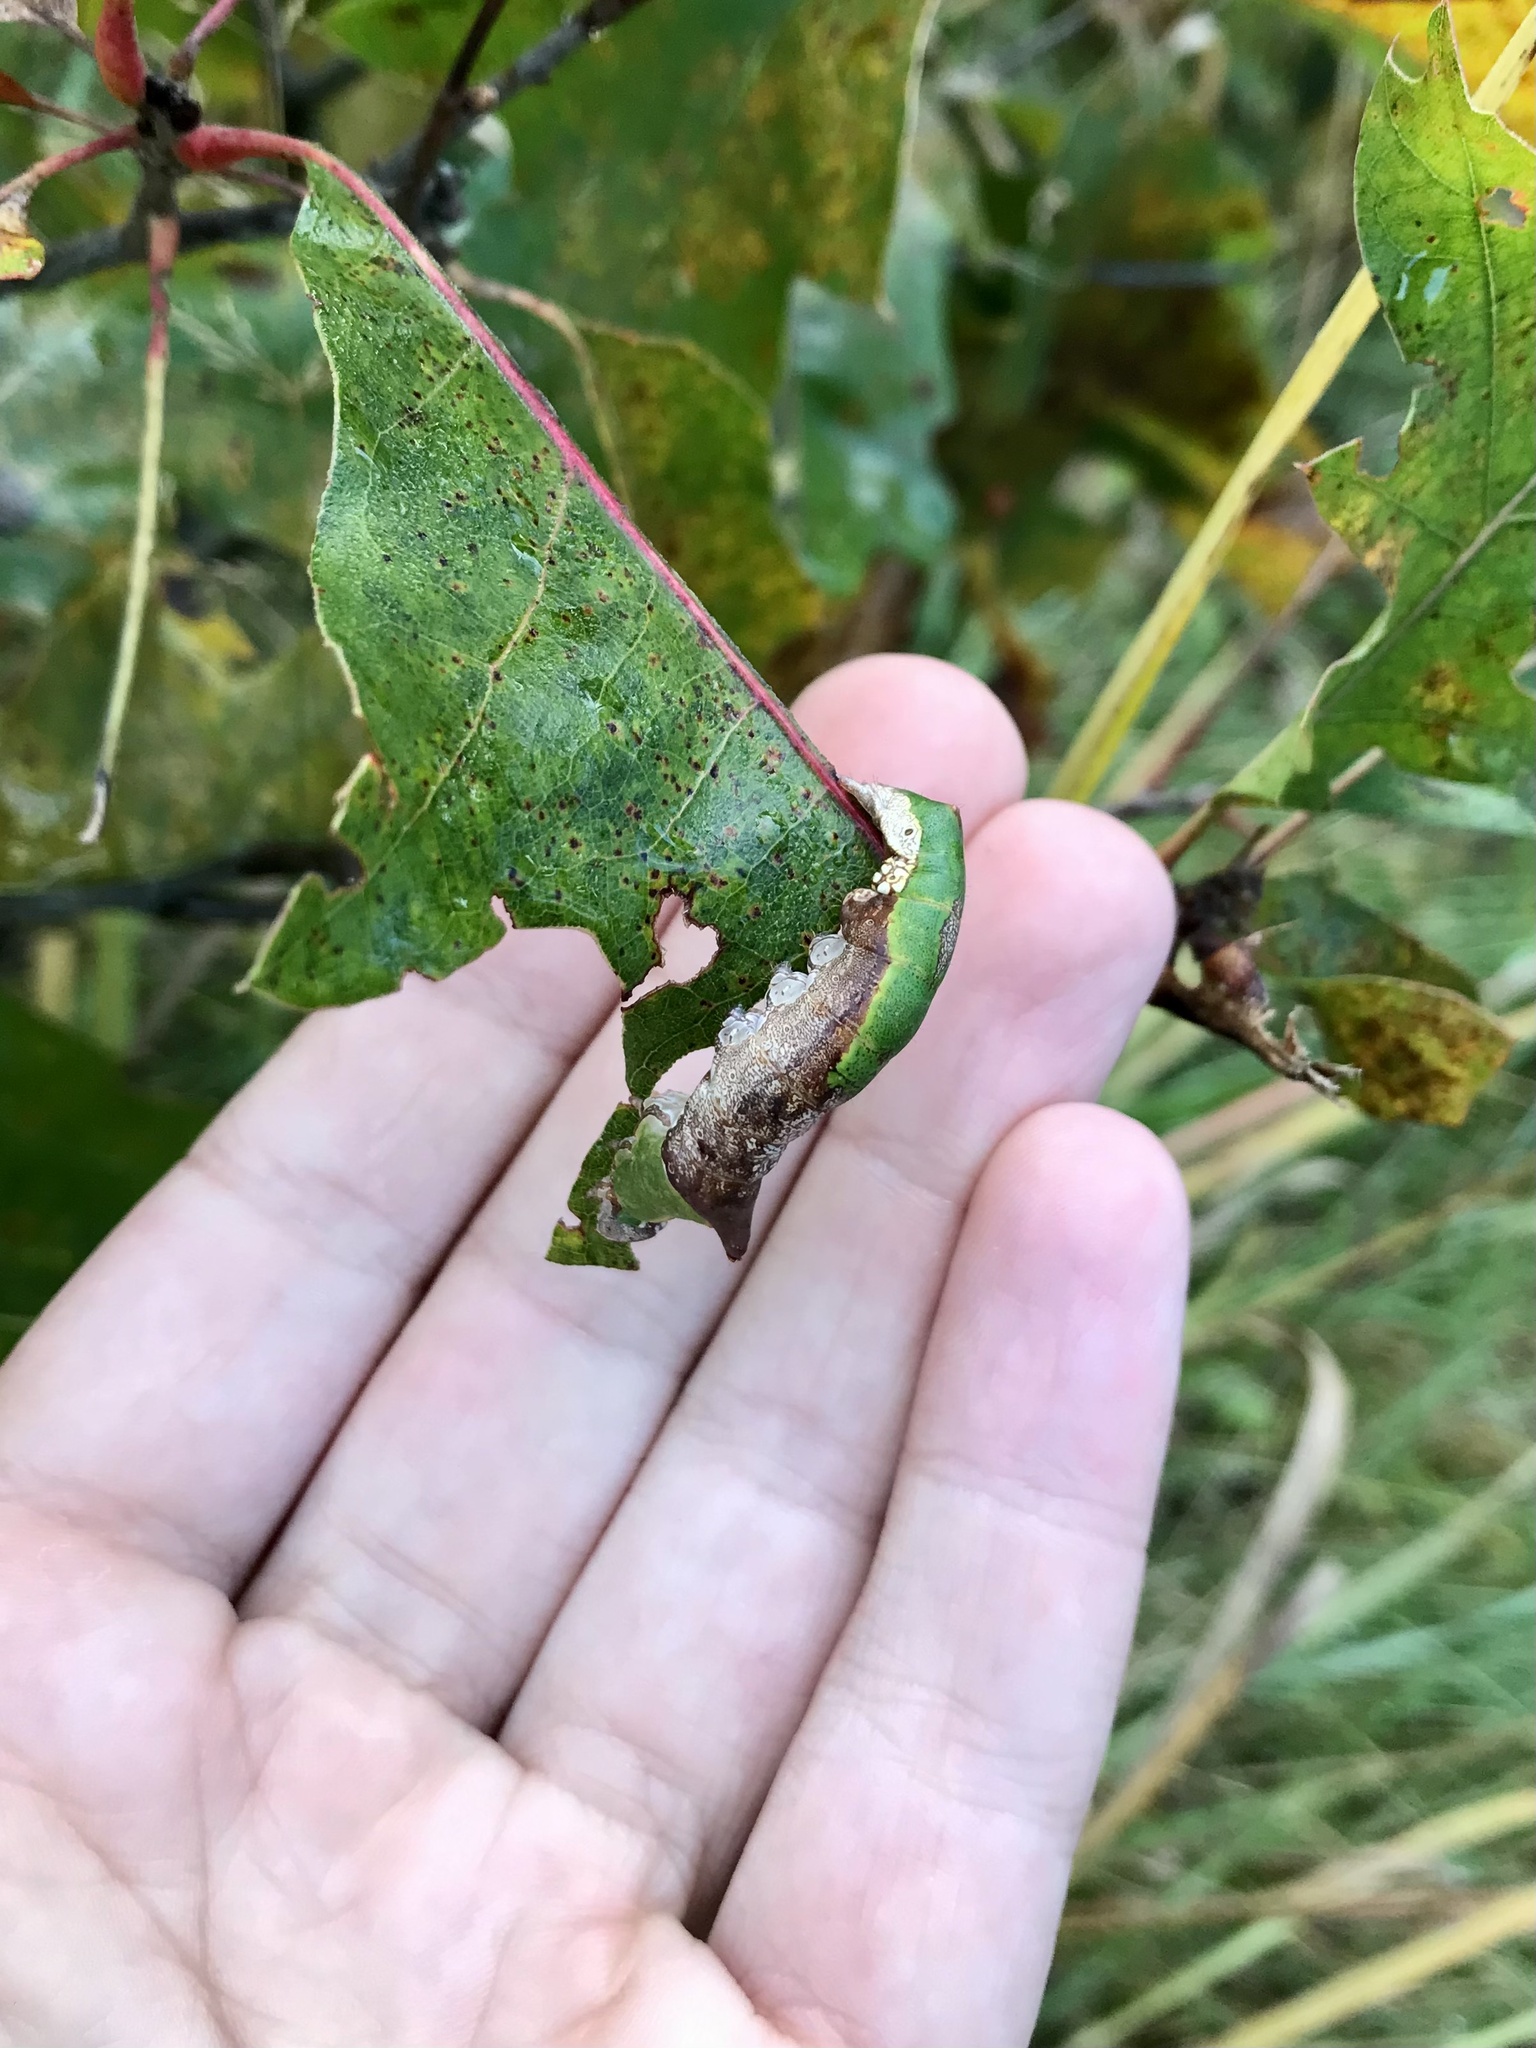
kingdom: Animalia
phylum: Arthropoda
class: Insecta
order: Lepidoptera
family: Notodontidae
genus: Oligocentria
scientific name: Oligocentria Ianassa lignicolor
